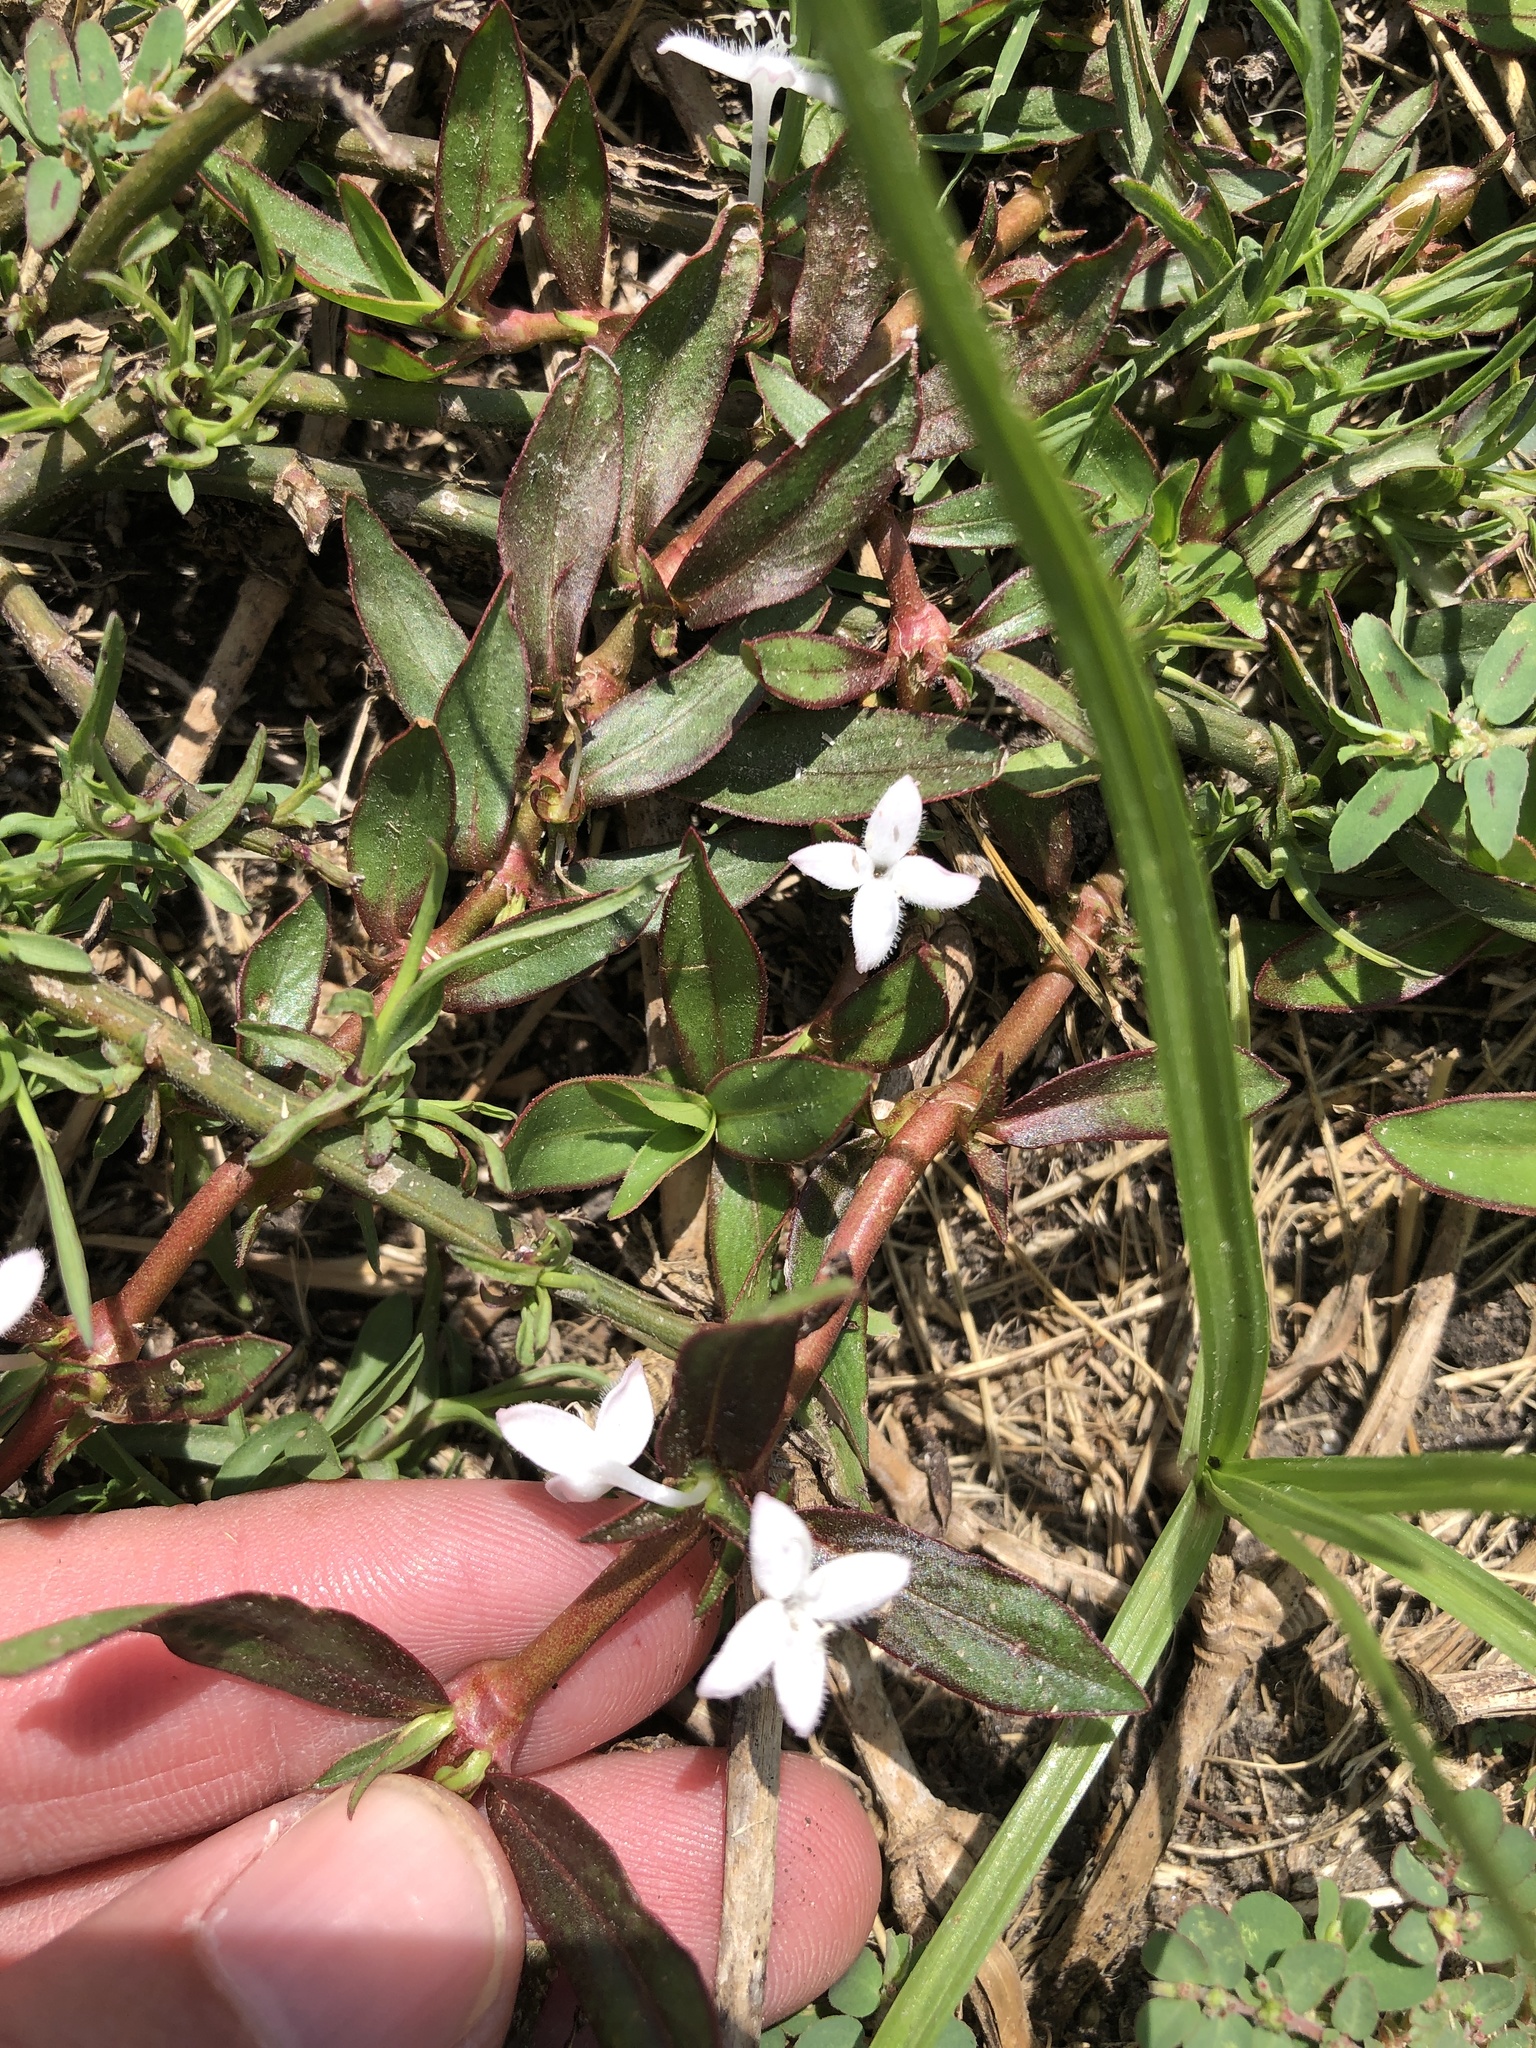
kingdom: Plantae
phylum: Tracheophyta
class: Magnoliopsida
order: Gentianales
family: Rubiaceae
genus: Diodia
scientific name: Diodia virginiana
